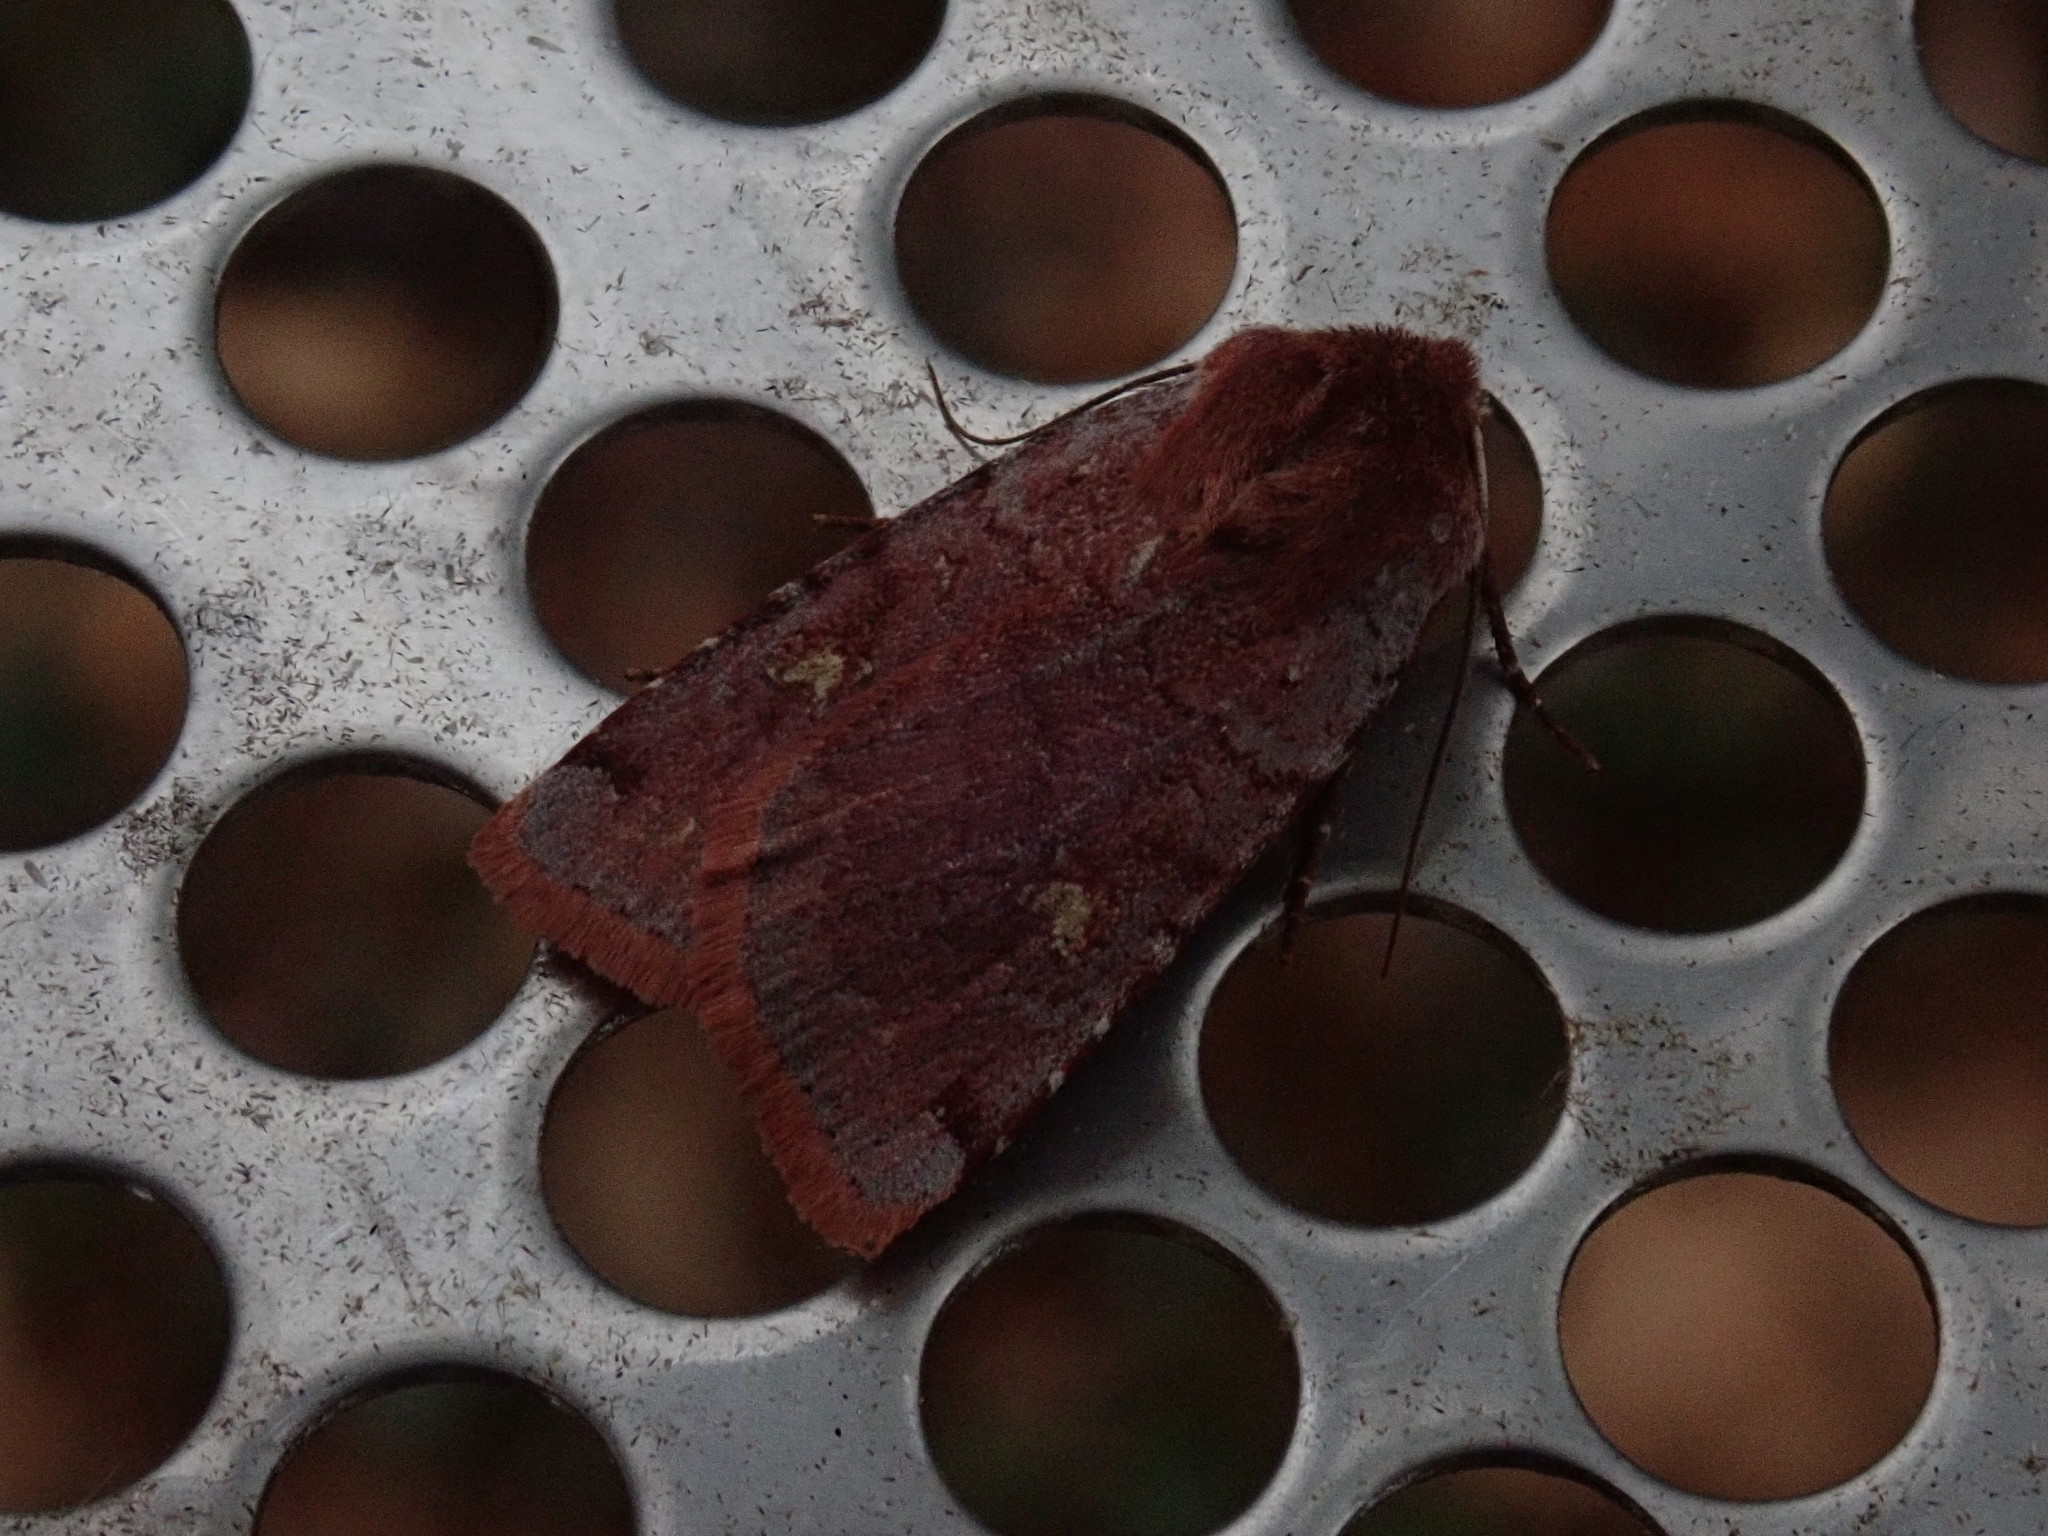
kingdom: Animalia
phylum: Arthropoda
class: Insecta
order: Lepidoptera
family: Noctuidae
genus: Cerastis
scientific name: Cerastis fishii
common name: Fish's dart
